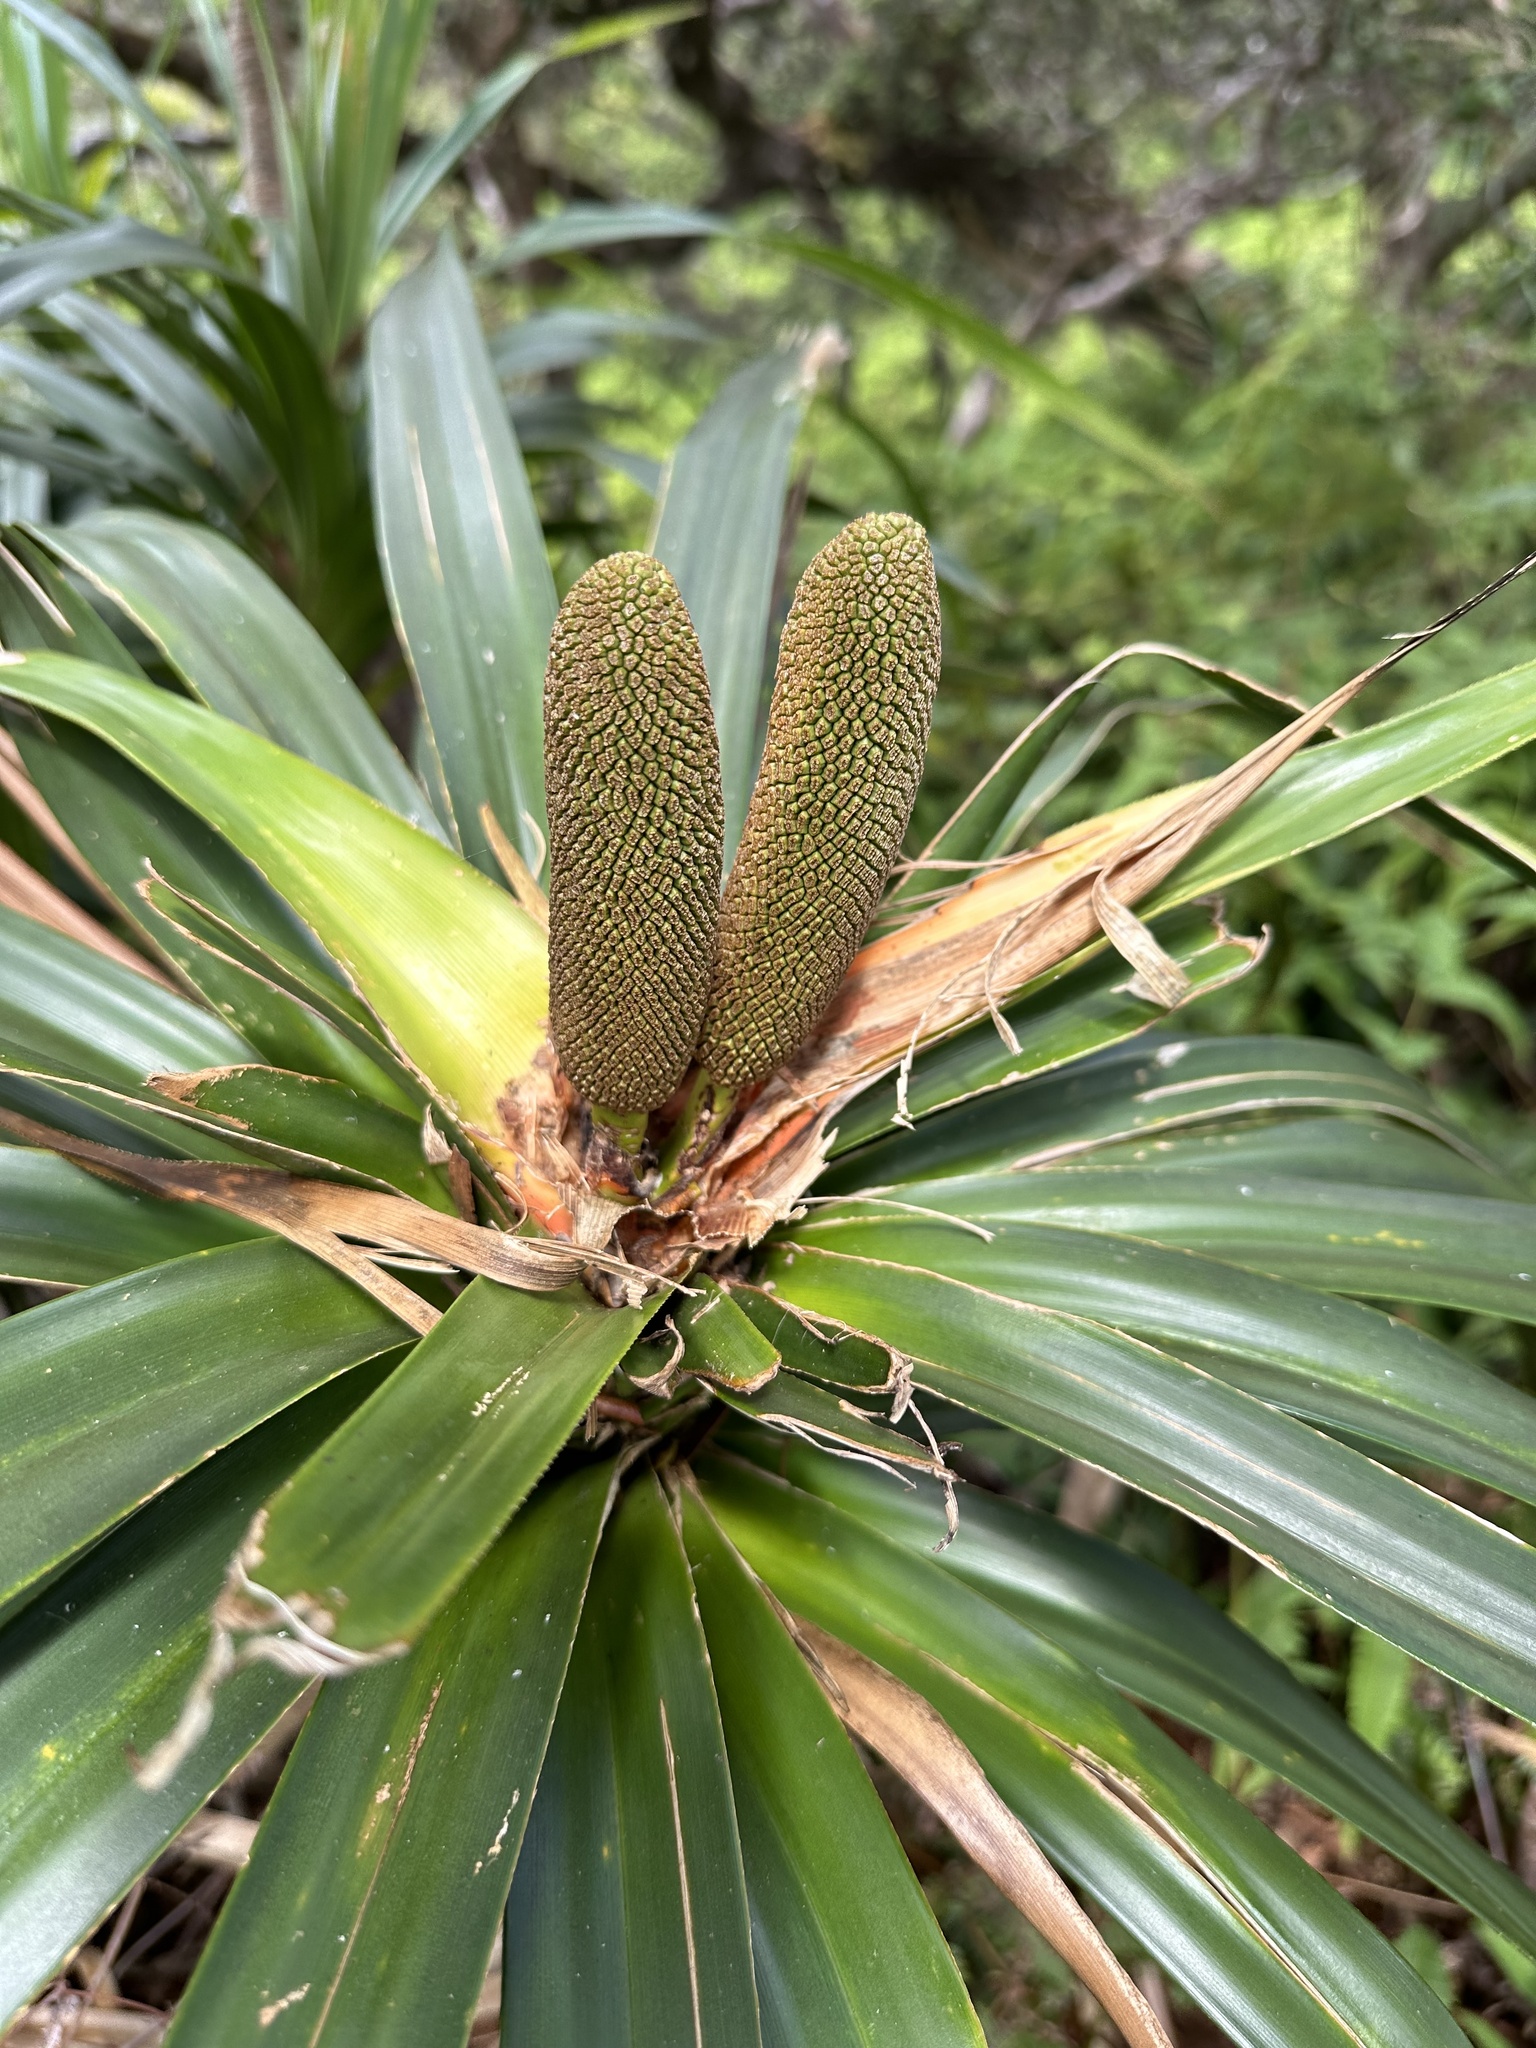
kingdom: Plantae
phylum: Tracheophyta
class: Liliopsida
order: Pandanales
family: Pandanaceae
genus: Freycinetia
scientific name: Freycinetia arborea
